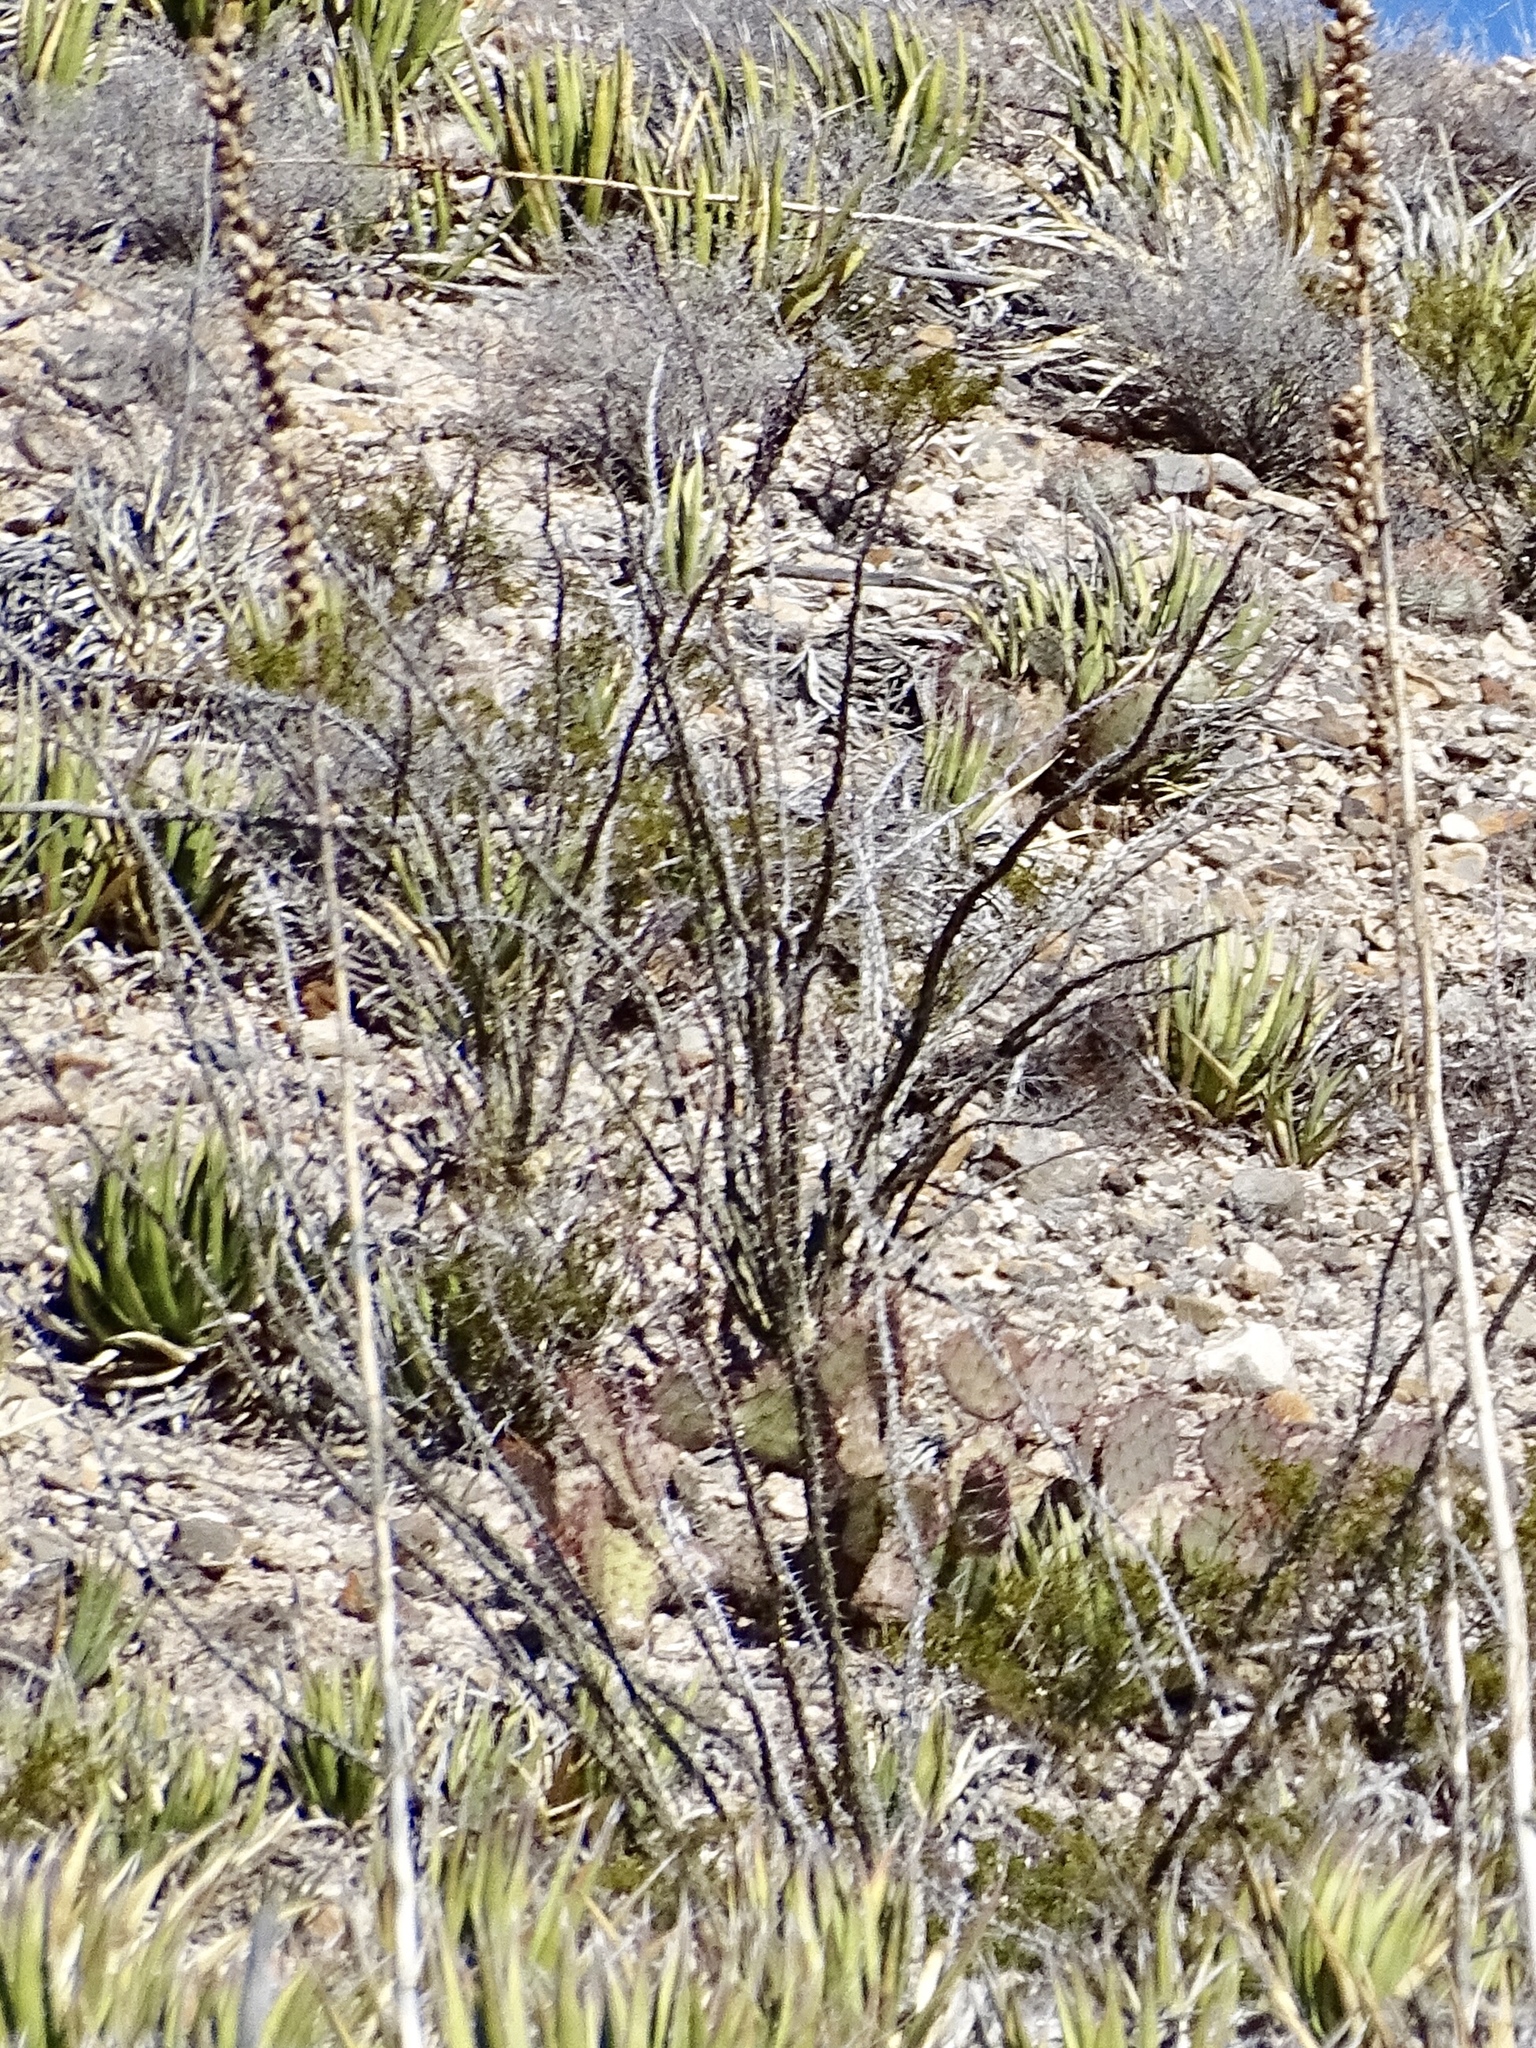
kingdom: Plantae
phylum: Tracheophyta
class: Magnoliopsida
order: Ericales
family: Fouquieriaceae
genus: Fouquieria
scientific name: Fouquieria splendens
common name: Vine-cactus
